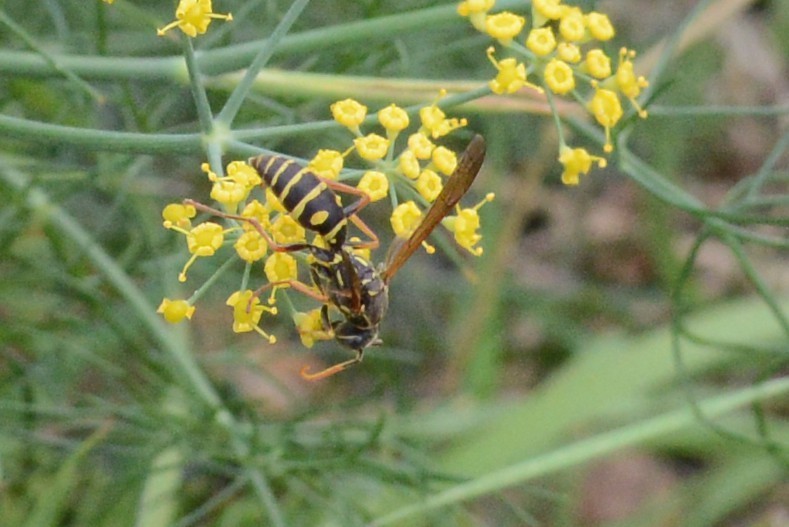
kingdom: Animalia
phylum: Arthropoda
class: Insecta
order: Hymenoptera
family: Eumenidae
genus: Polistes
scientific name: Polistes chinensis
